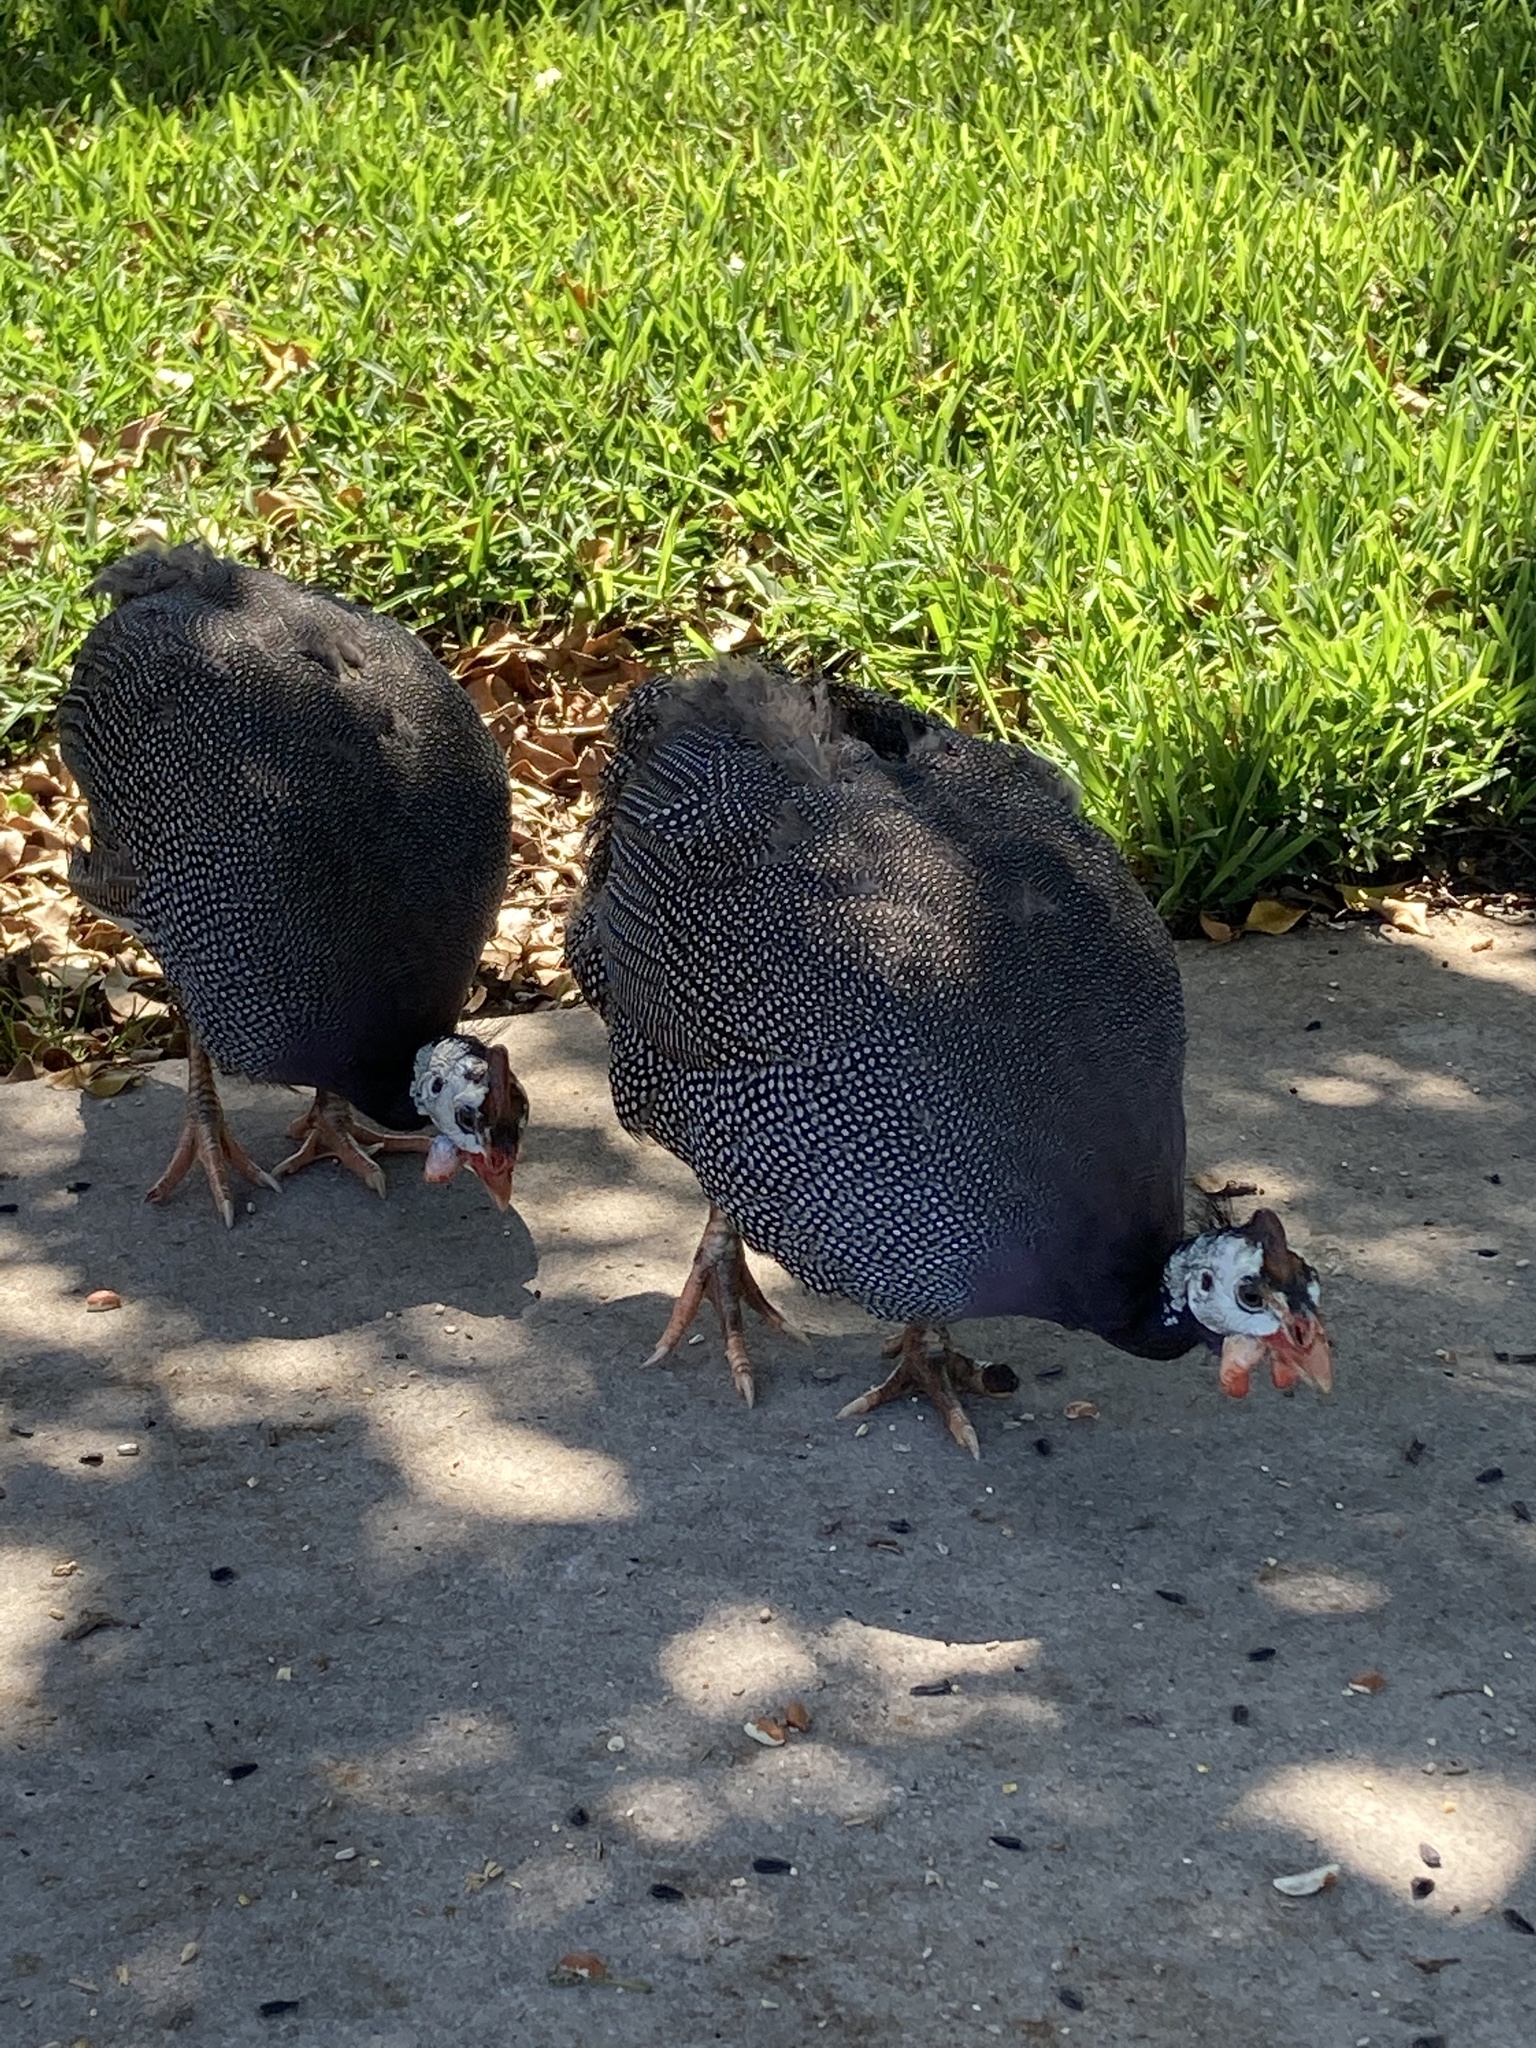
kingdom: Animalia
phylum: Chordata
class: Aves
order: Galliformes
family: Numididae
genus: Numida
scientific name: Numida meleagris
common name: Helmeted guineafowl
